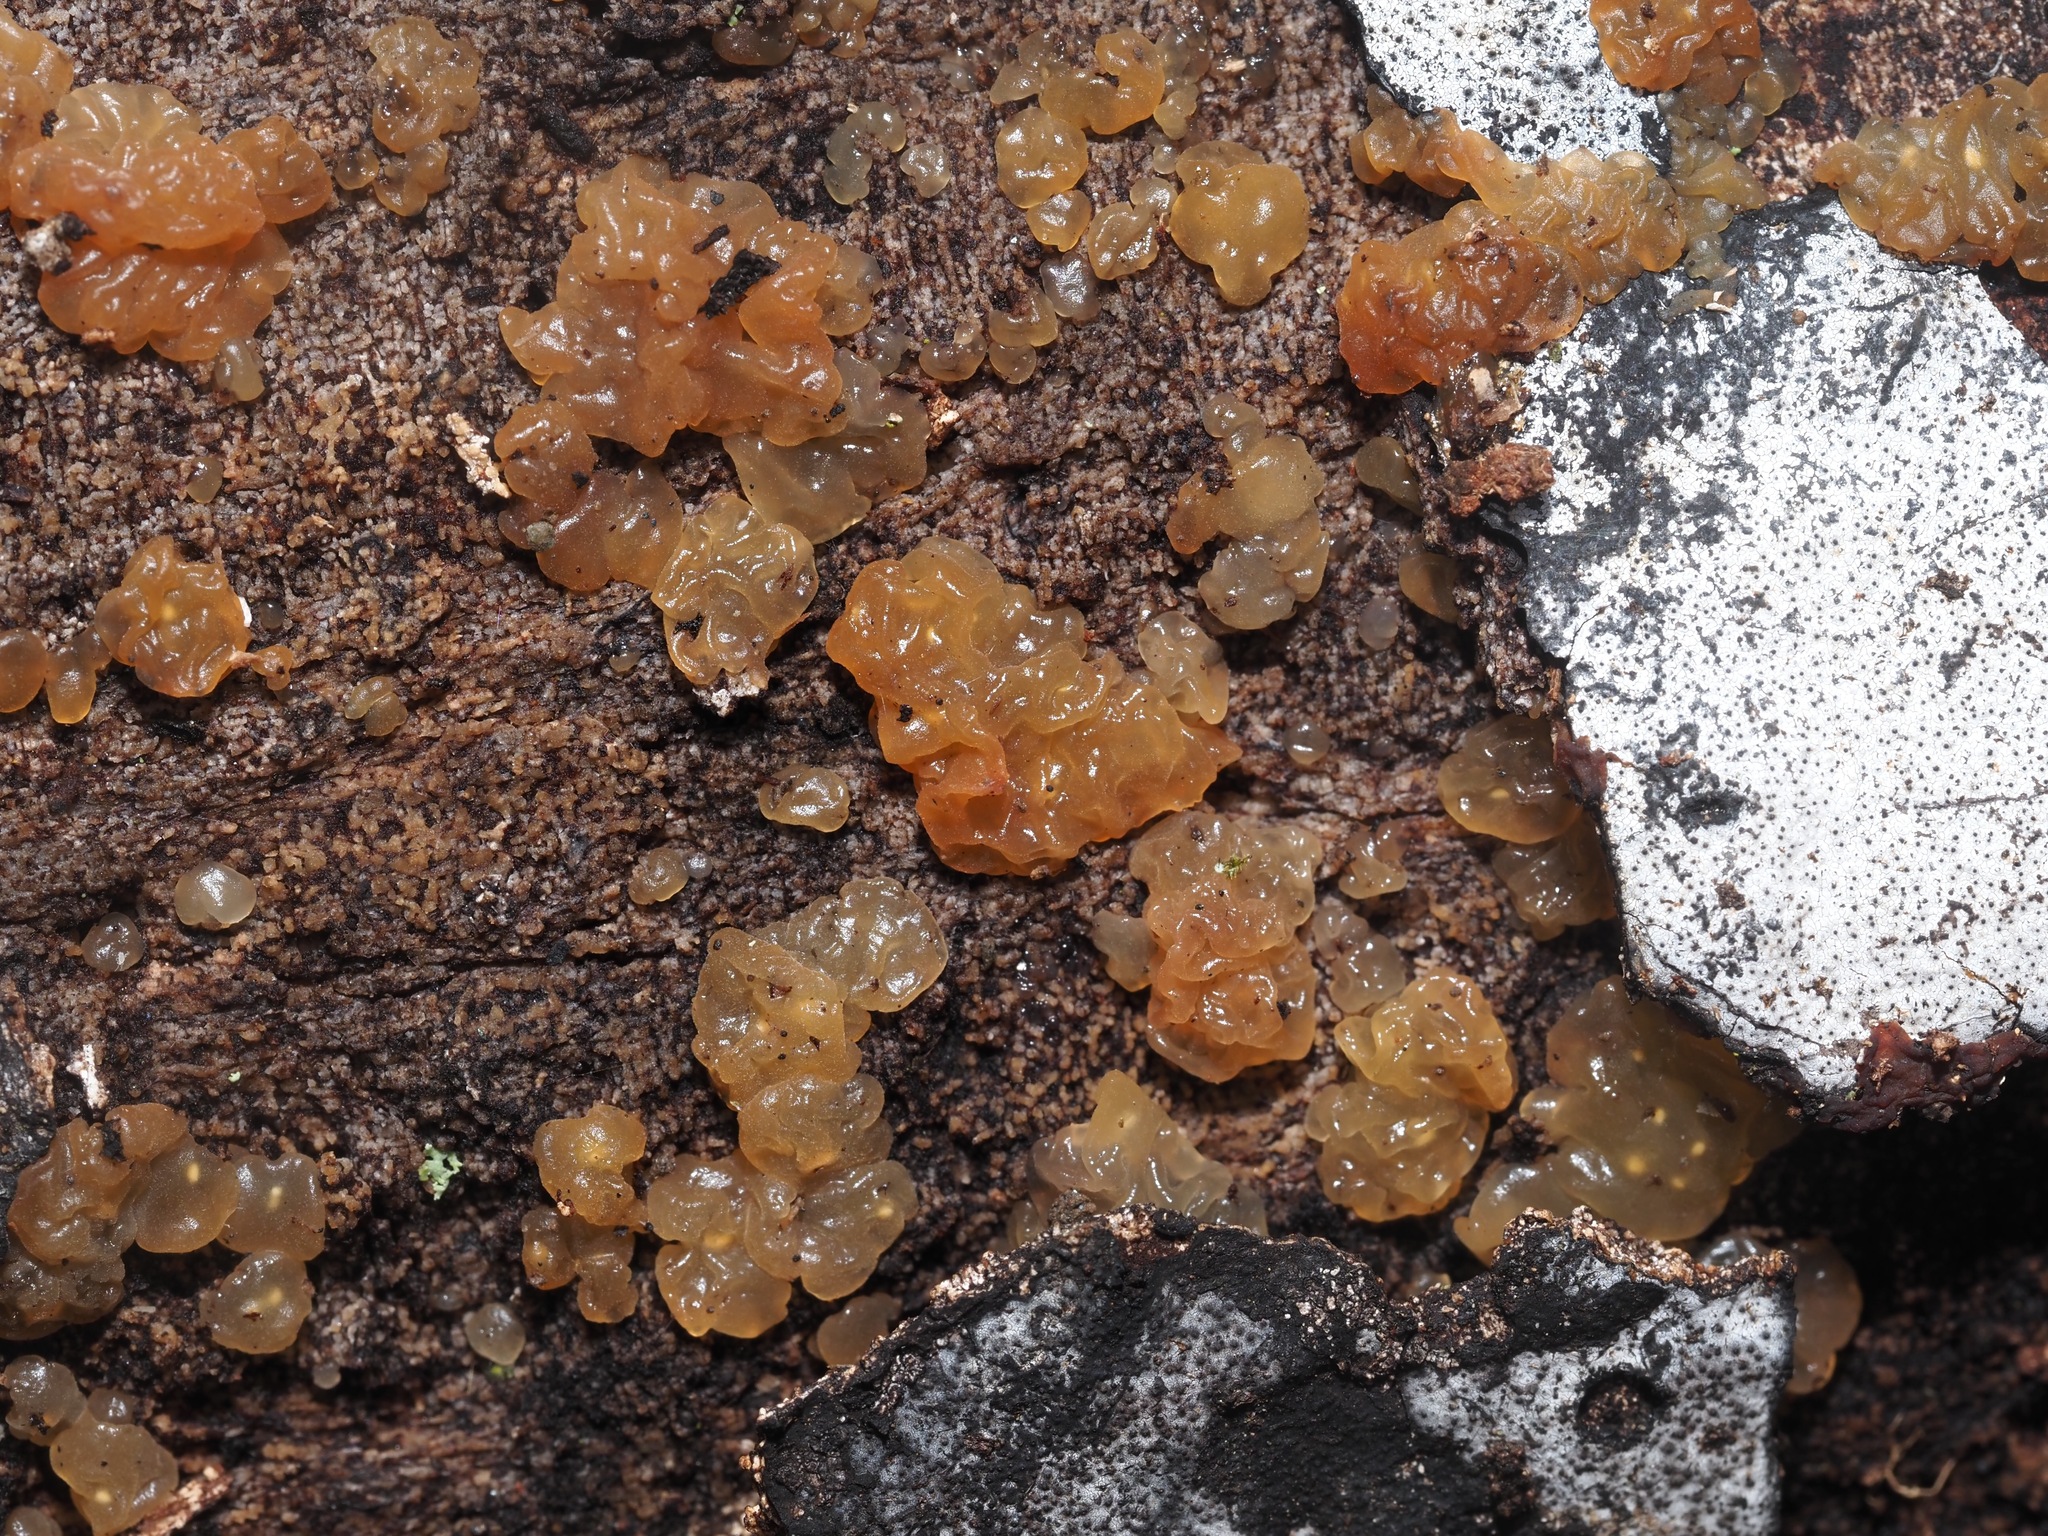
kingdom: Fungi
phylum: Basidiomycota
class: Agaricomycetes
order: Auriculariales
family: Hyaloriaceae
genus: Myxarium
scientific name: Myxarium nucleatum
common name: Crystal brain fungus
